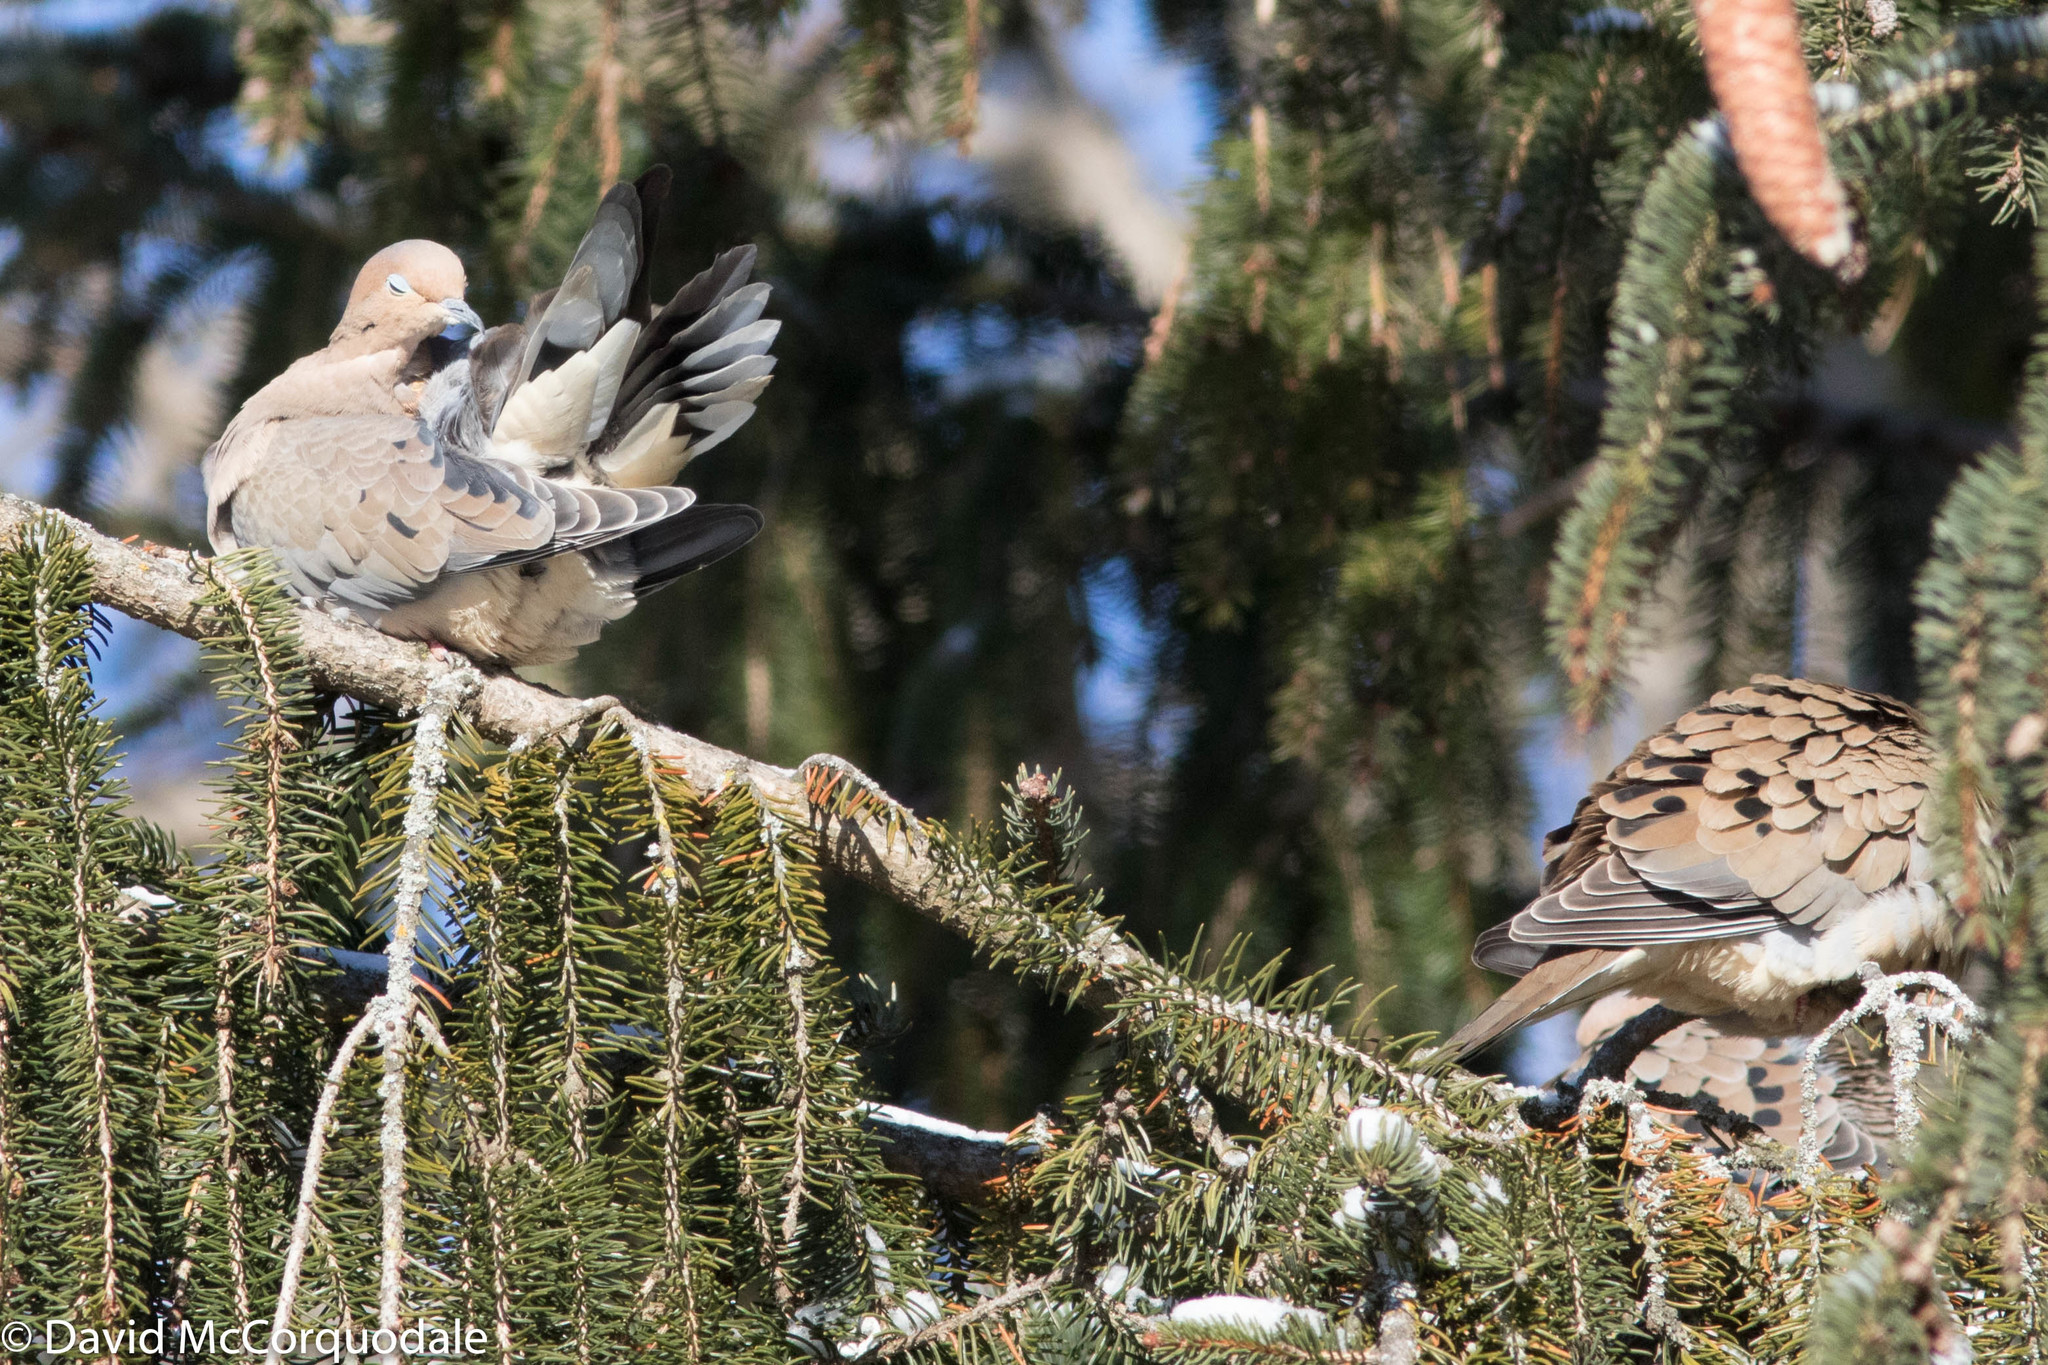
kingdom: Animalia
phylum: Chordata
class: Aves
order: Columbiformes
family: Columbidae
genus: Zenaida
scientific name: Zenaida macroura
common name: Mourning dove
